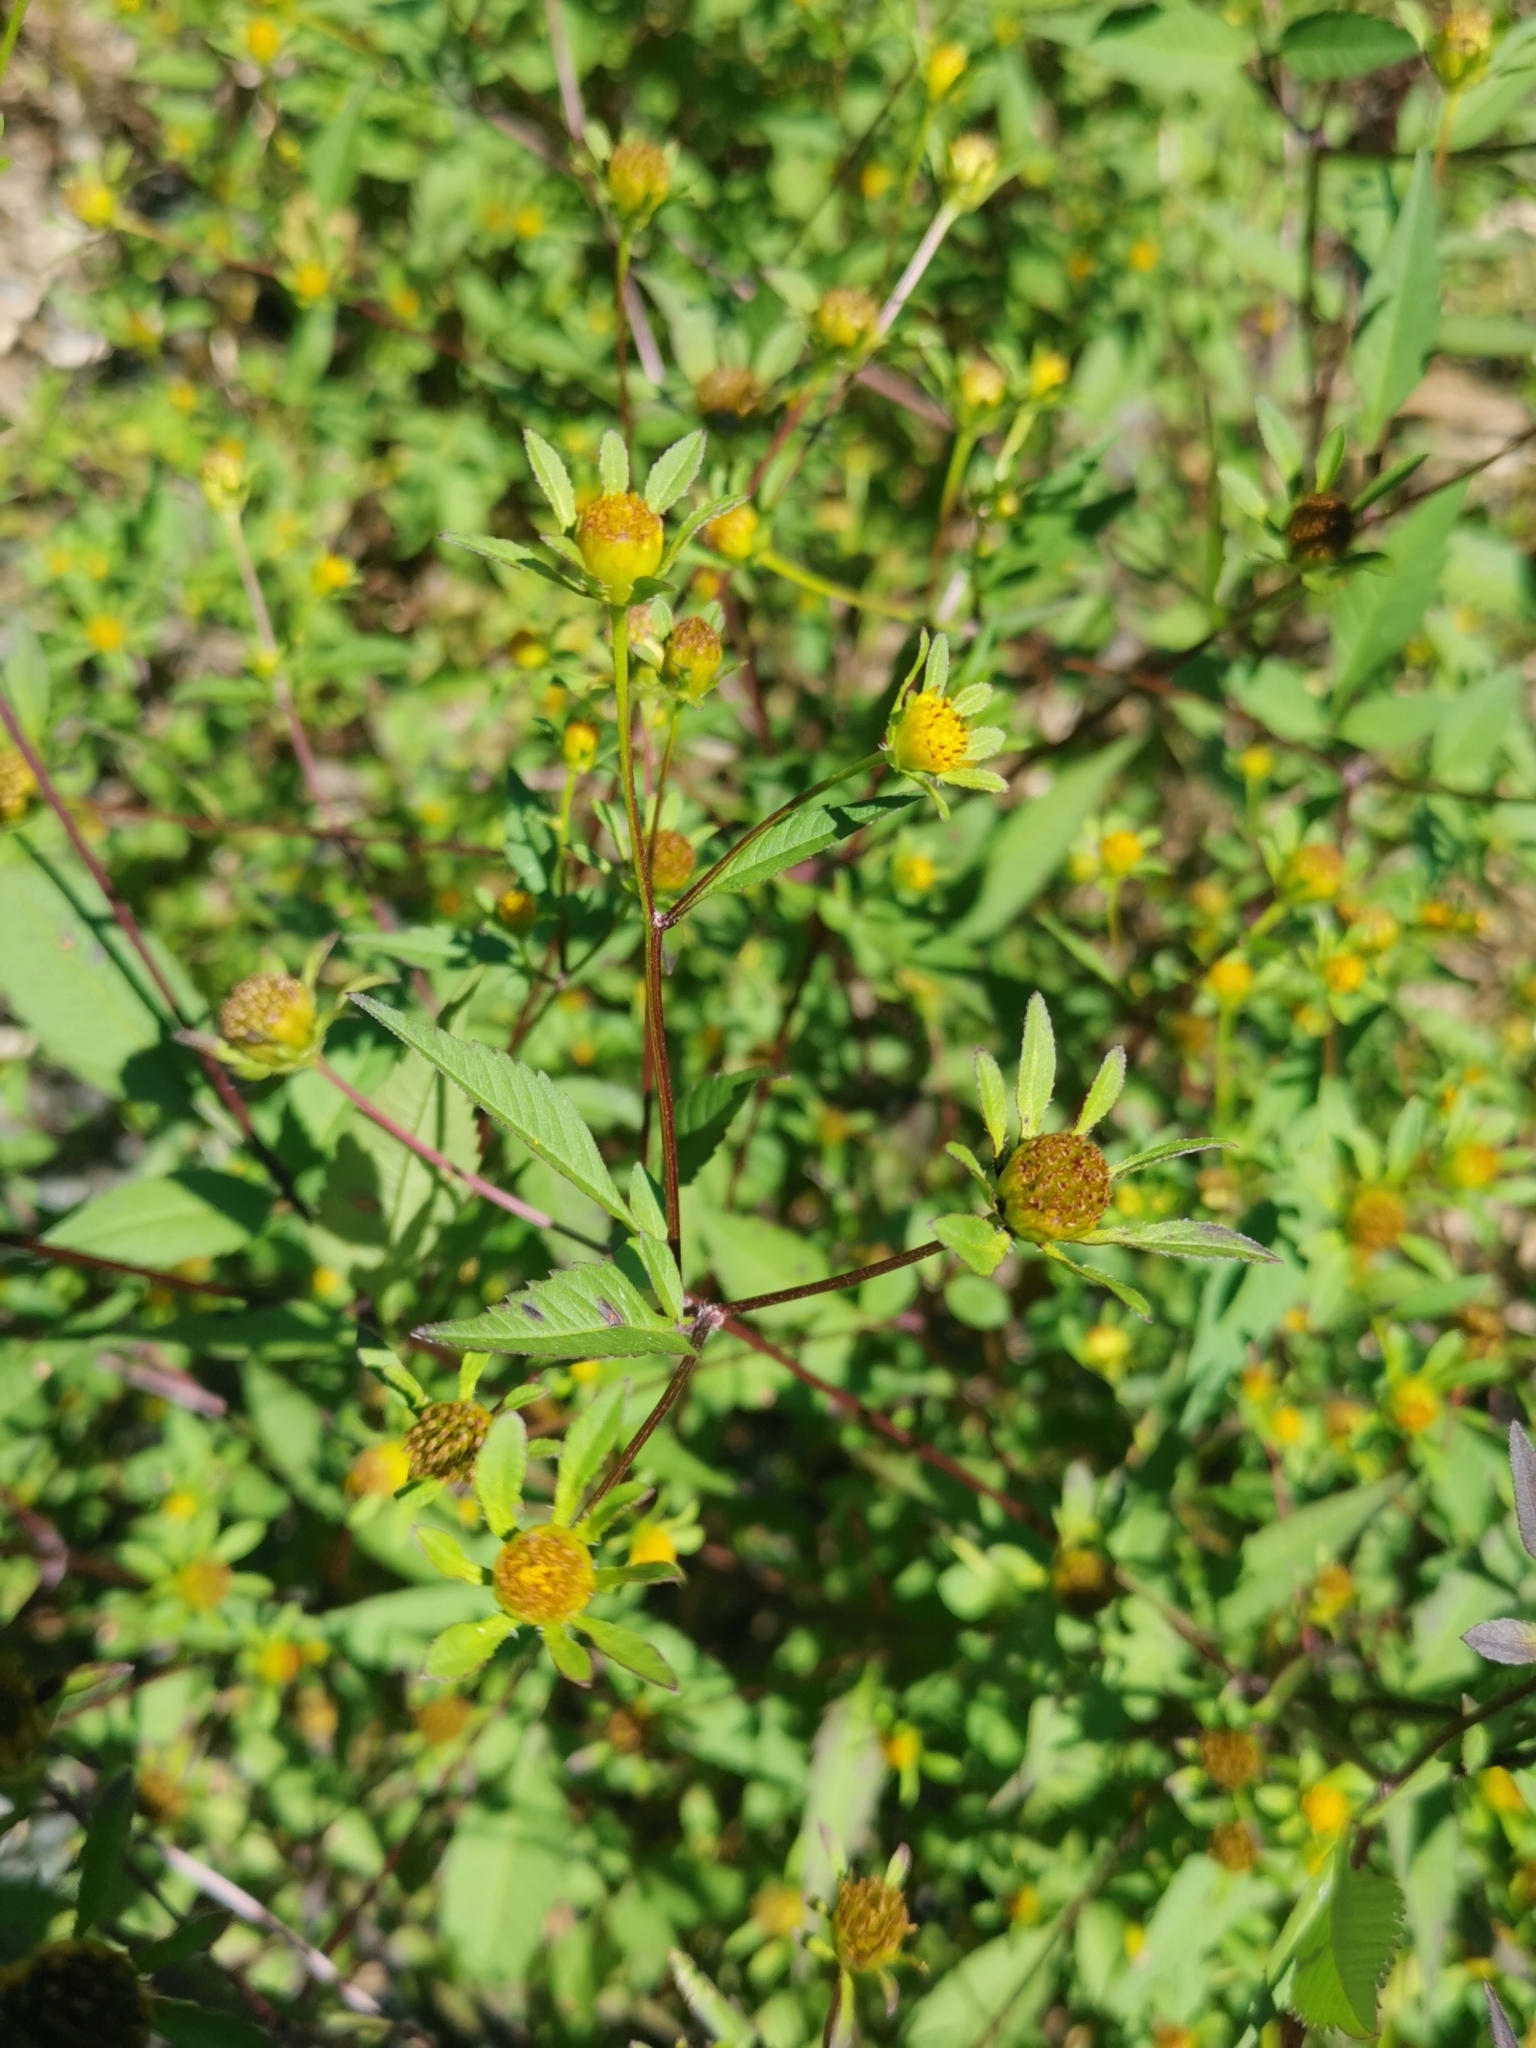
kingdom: Plantae
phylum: Tracheophyta
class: Magnoliopsida
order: Asterales
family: Asteraceae
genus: Bidens
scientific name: Bidens frondosa
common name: Beggarticks
